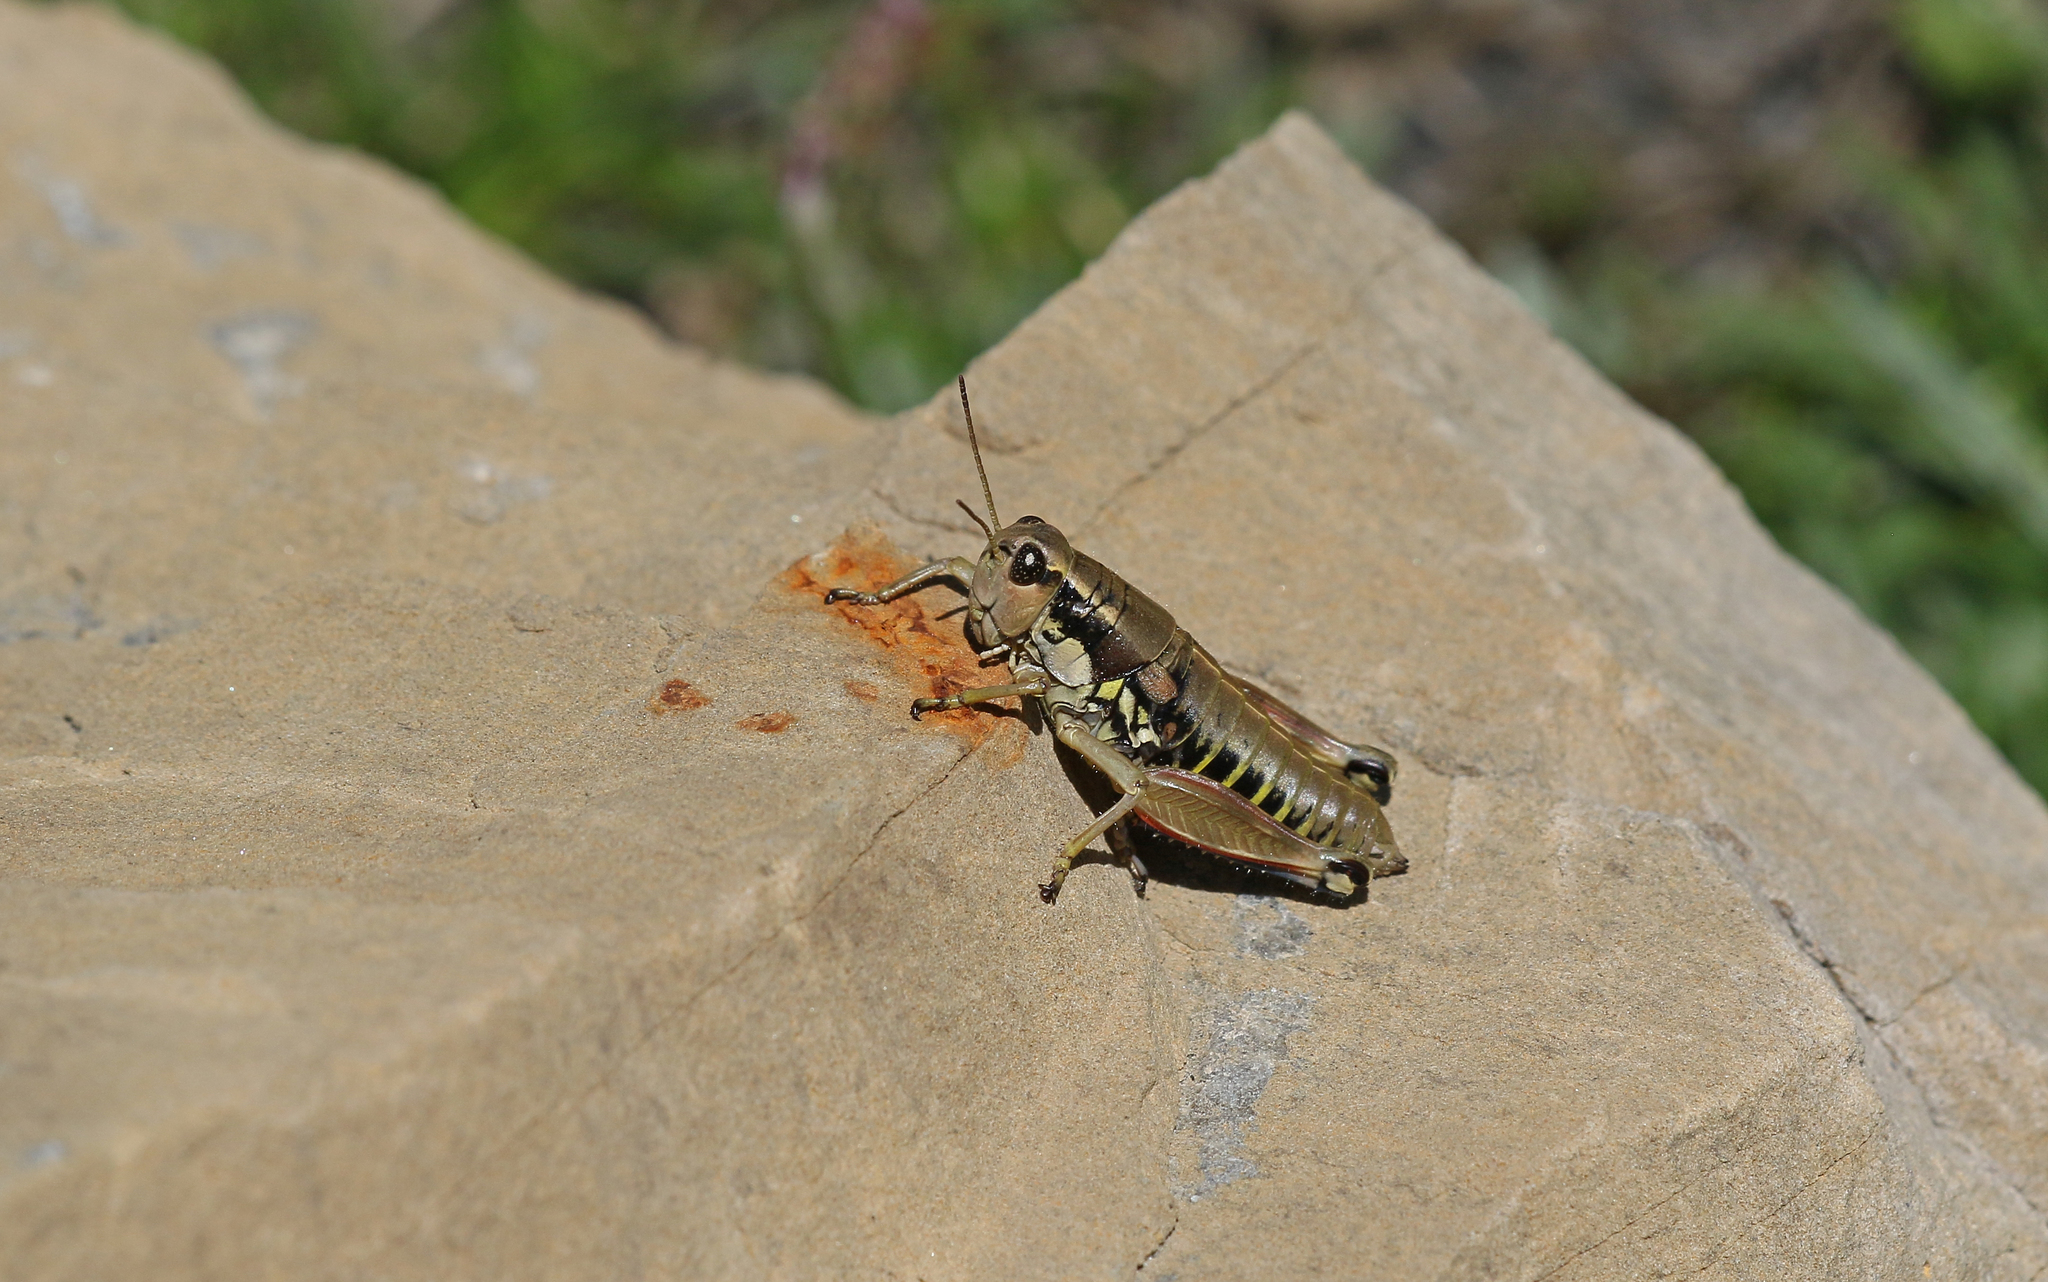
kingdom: Animalia
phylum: Arthropoda
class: Insecta
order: Orthoptera
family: Acrididae
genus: Podisma
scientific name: Podisma dechambrei
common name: Alpes-maritimes mountain grasshopper
